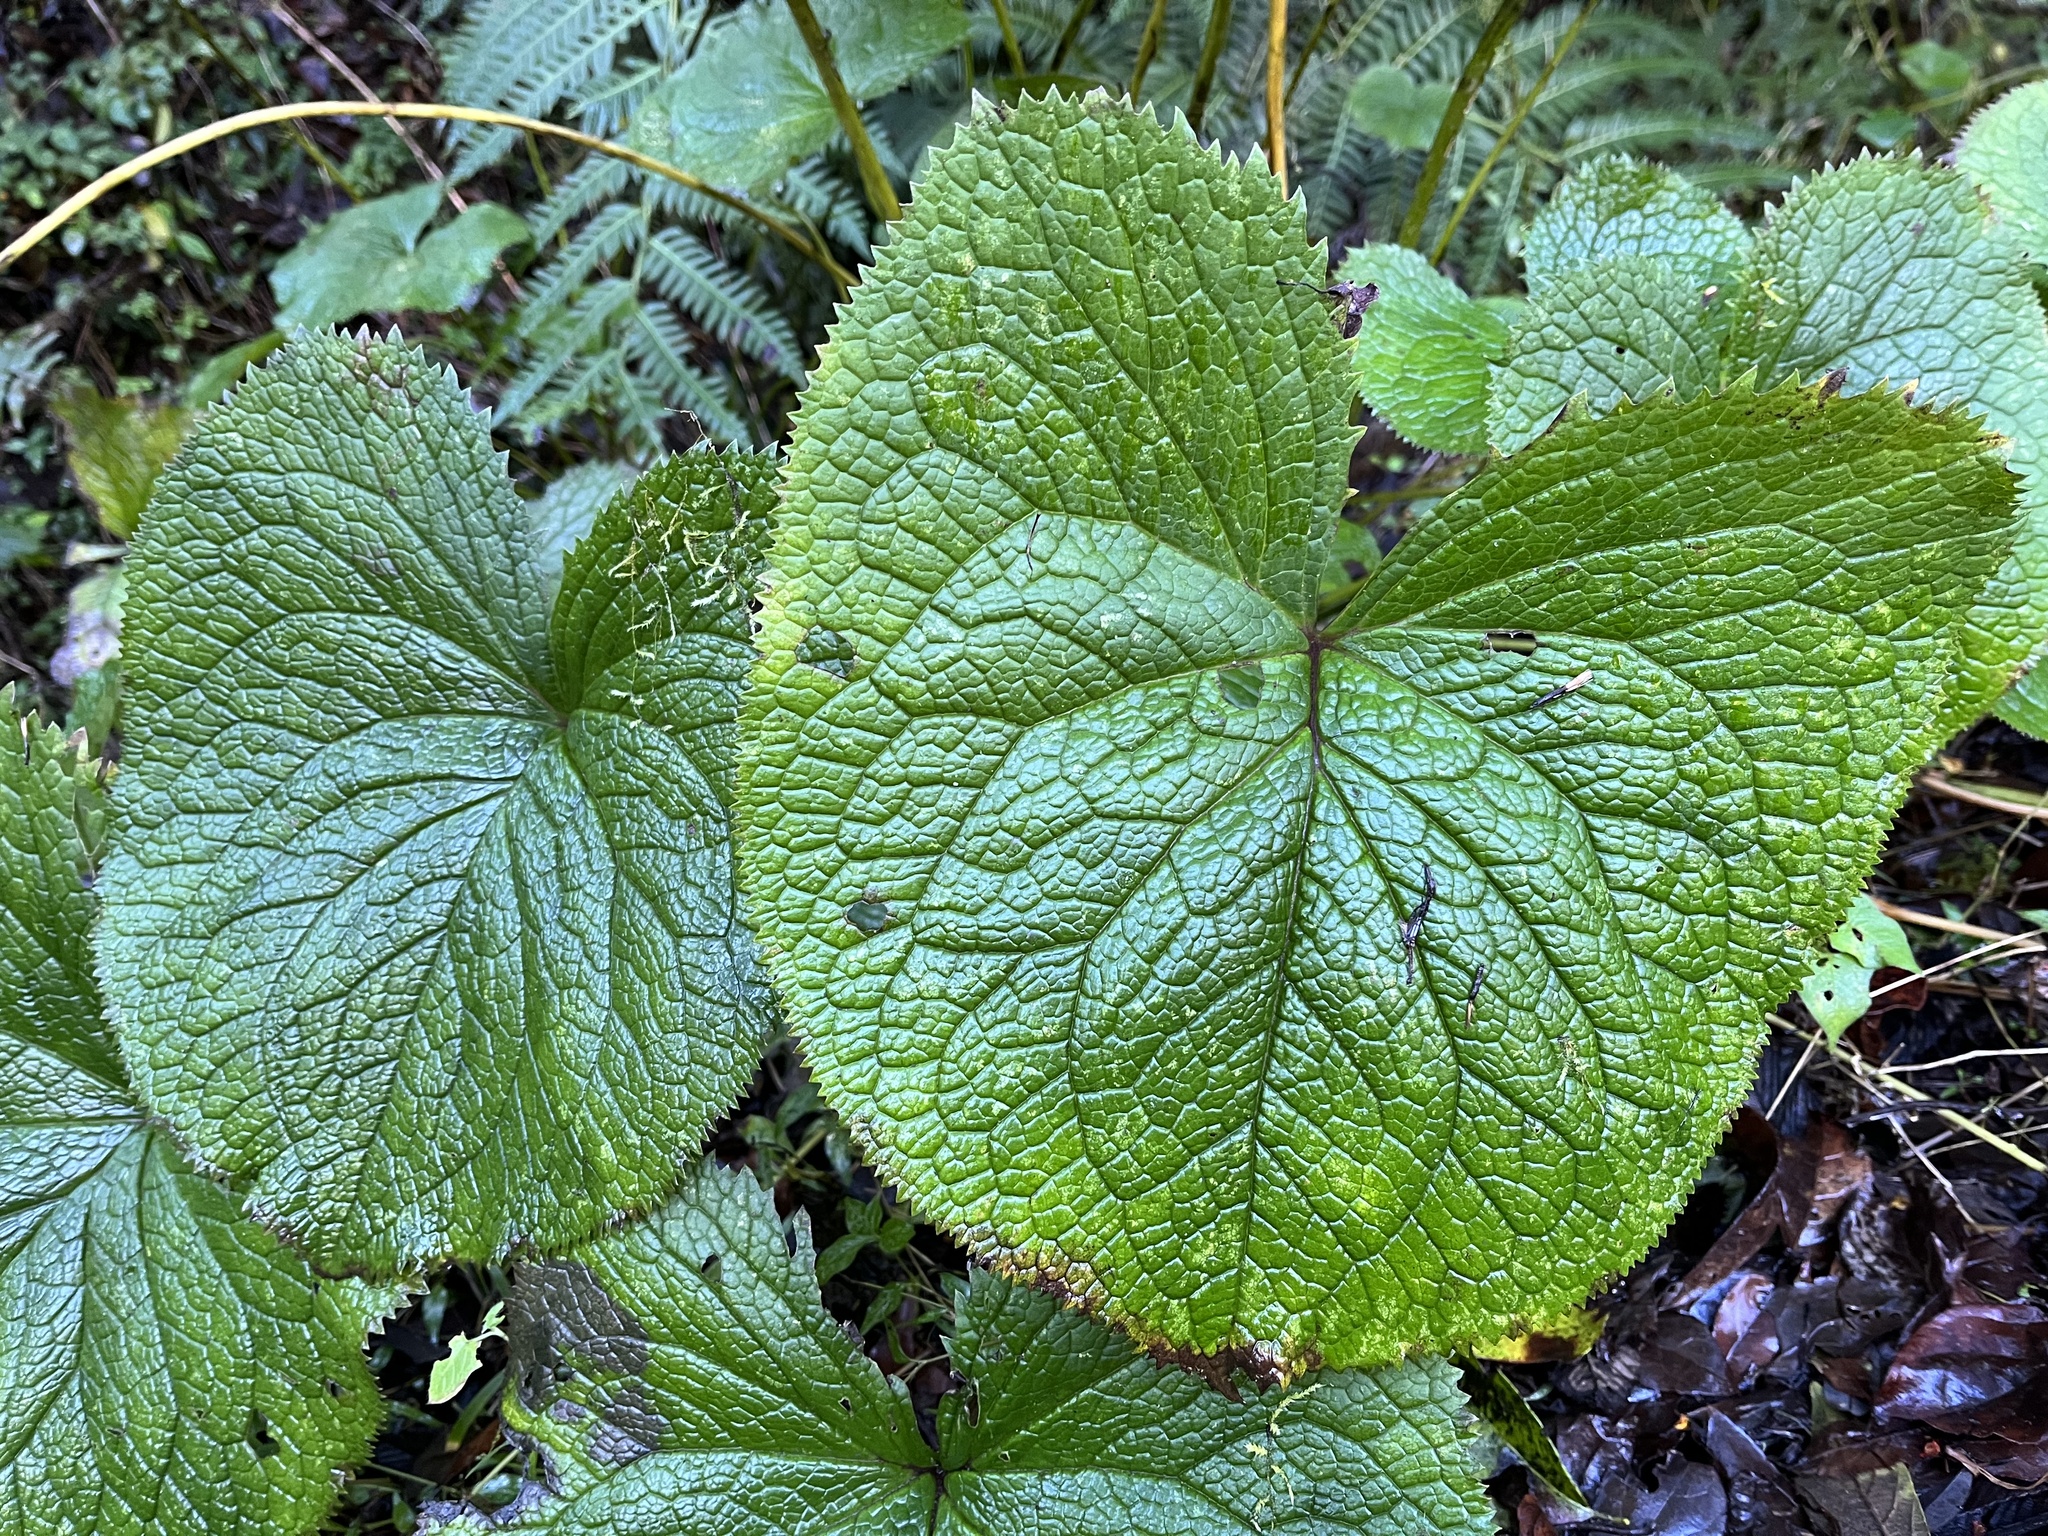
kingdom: Plantae
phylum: Tracheophyta
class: Magnoliopsida
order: Asterales
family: Asteraceae
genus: Ligularia
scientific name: Ligularia stenocephala
